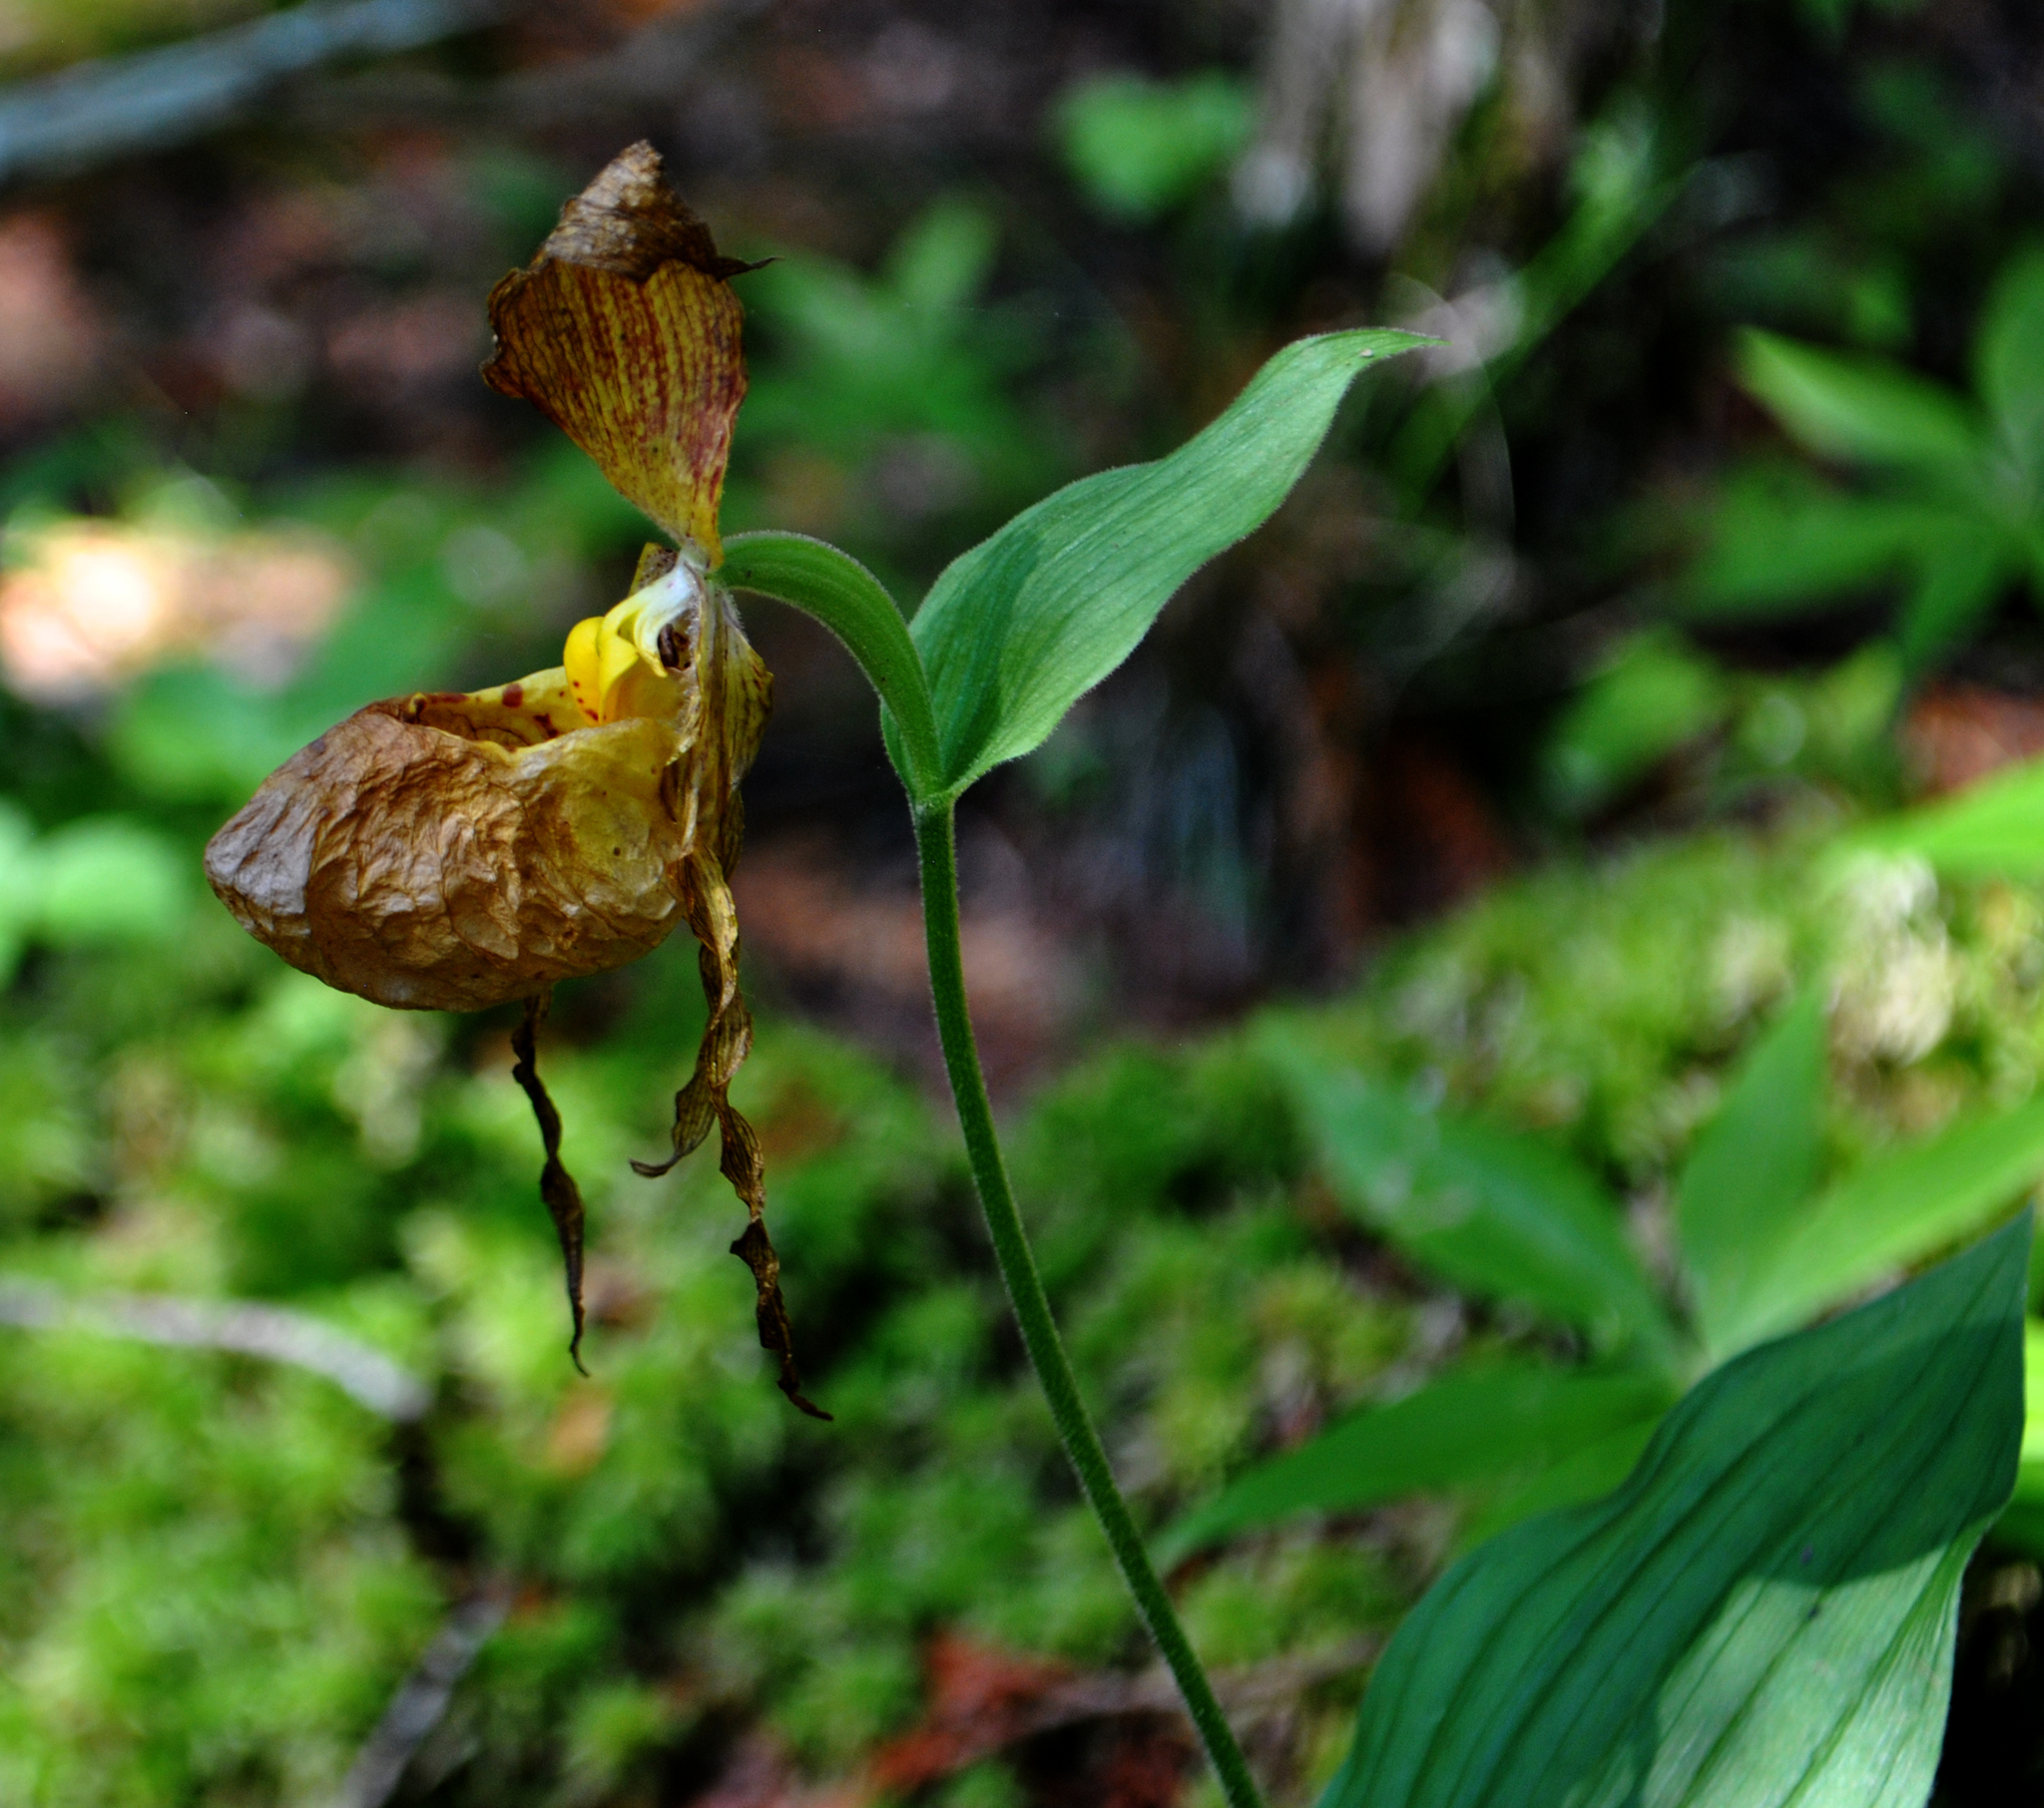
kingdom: Plantae
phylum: Tracheophyta
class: Liliopsida
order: Asparagales
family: Orchidaceae
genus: Cypripedium
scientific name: Cypripedium parviflorum
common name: American yellow lady's-slipper
